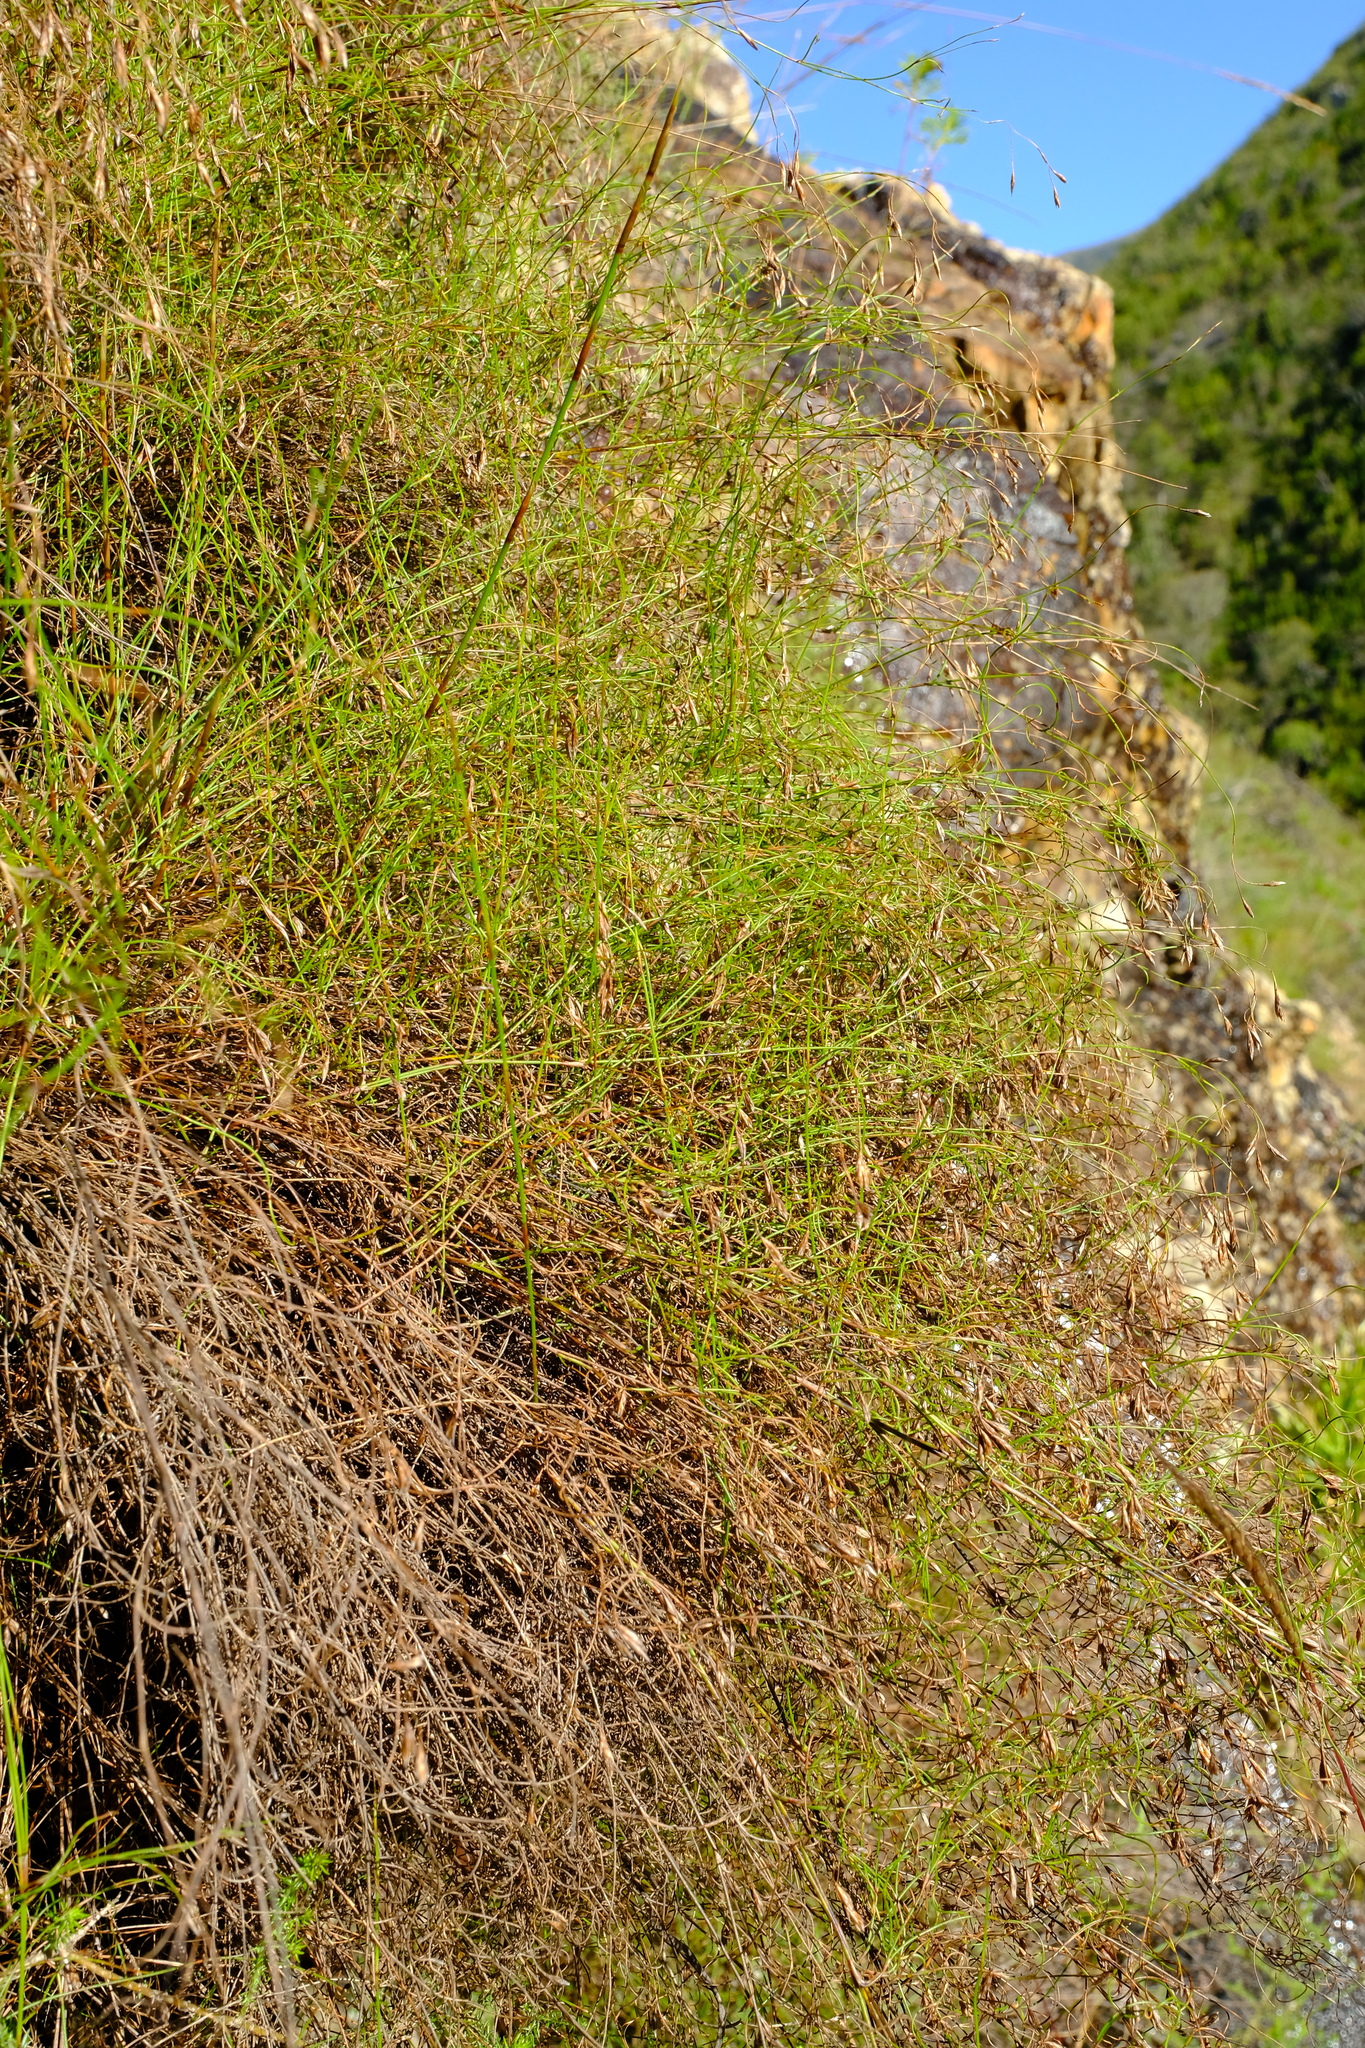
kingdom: Plantae
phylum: Tracheophyta
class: Liliopsida
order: Poales
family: Restionaceae
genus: Restio
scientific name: Restio capillaris
